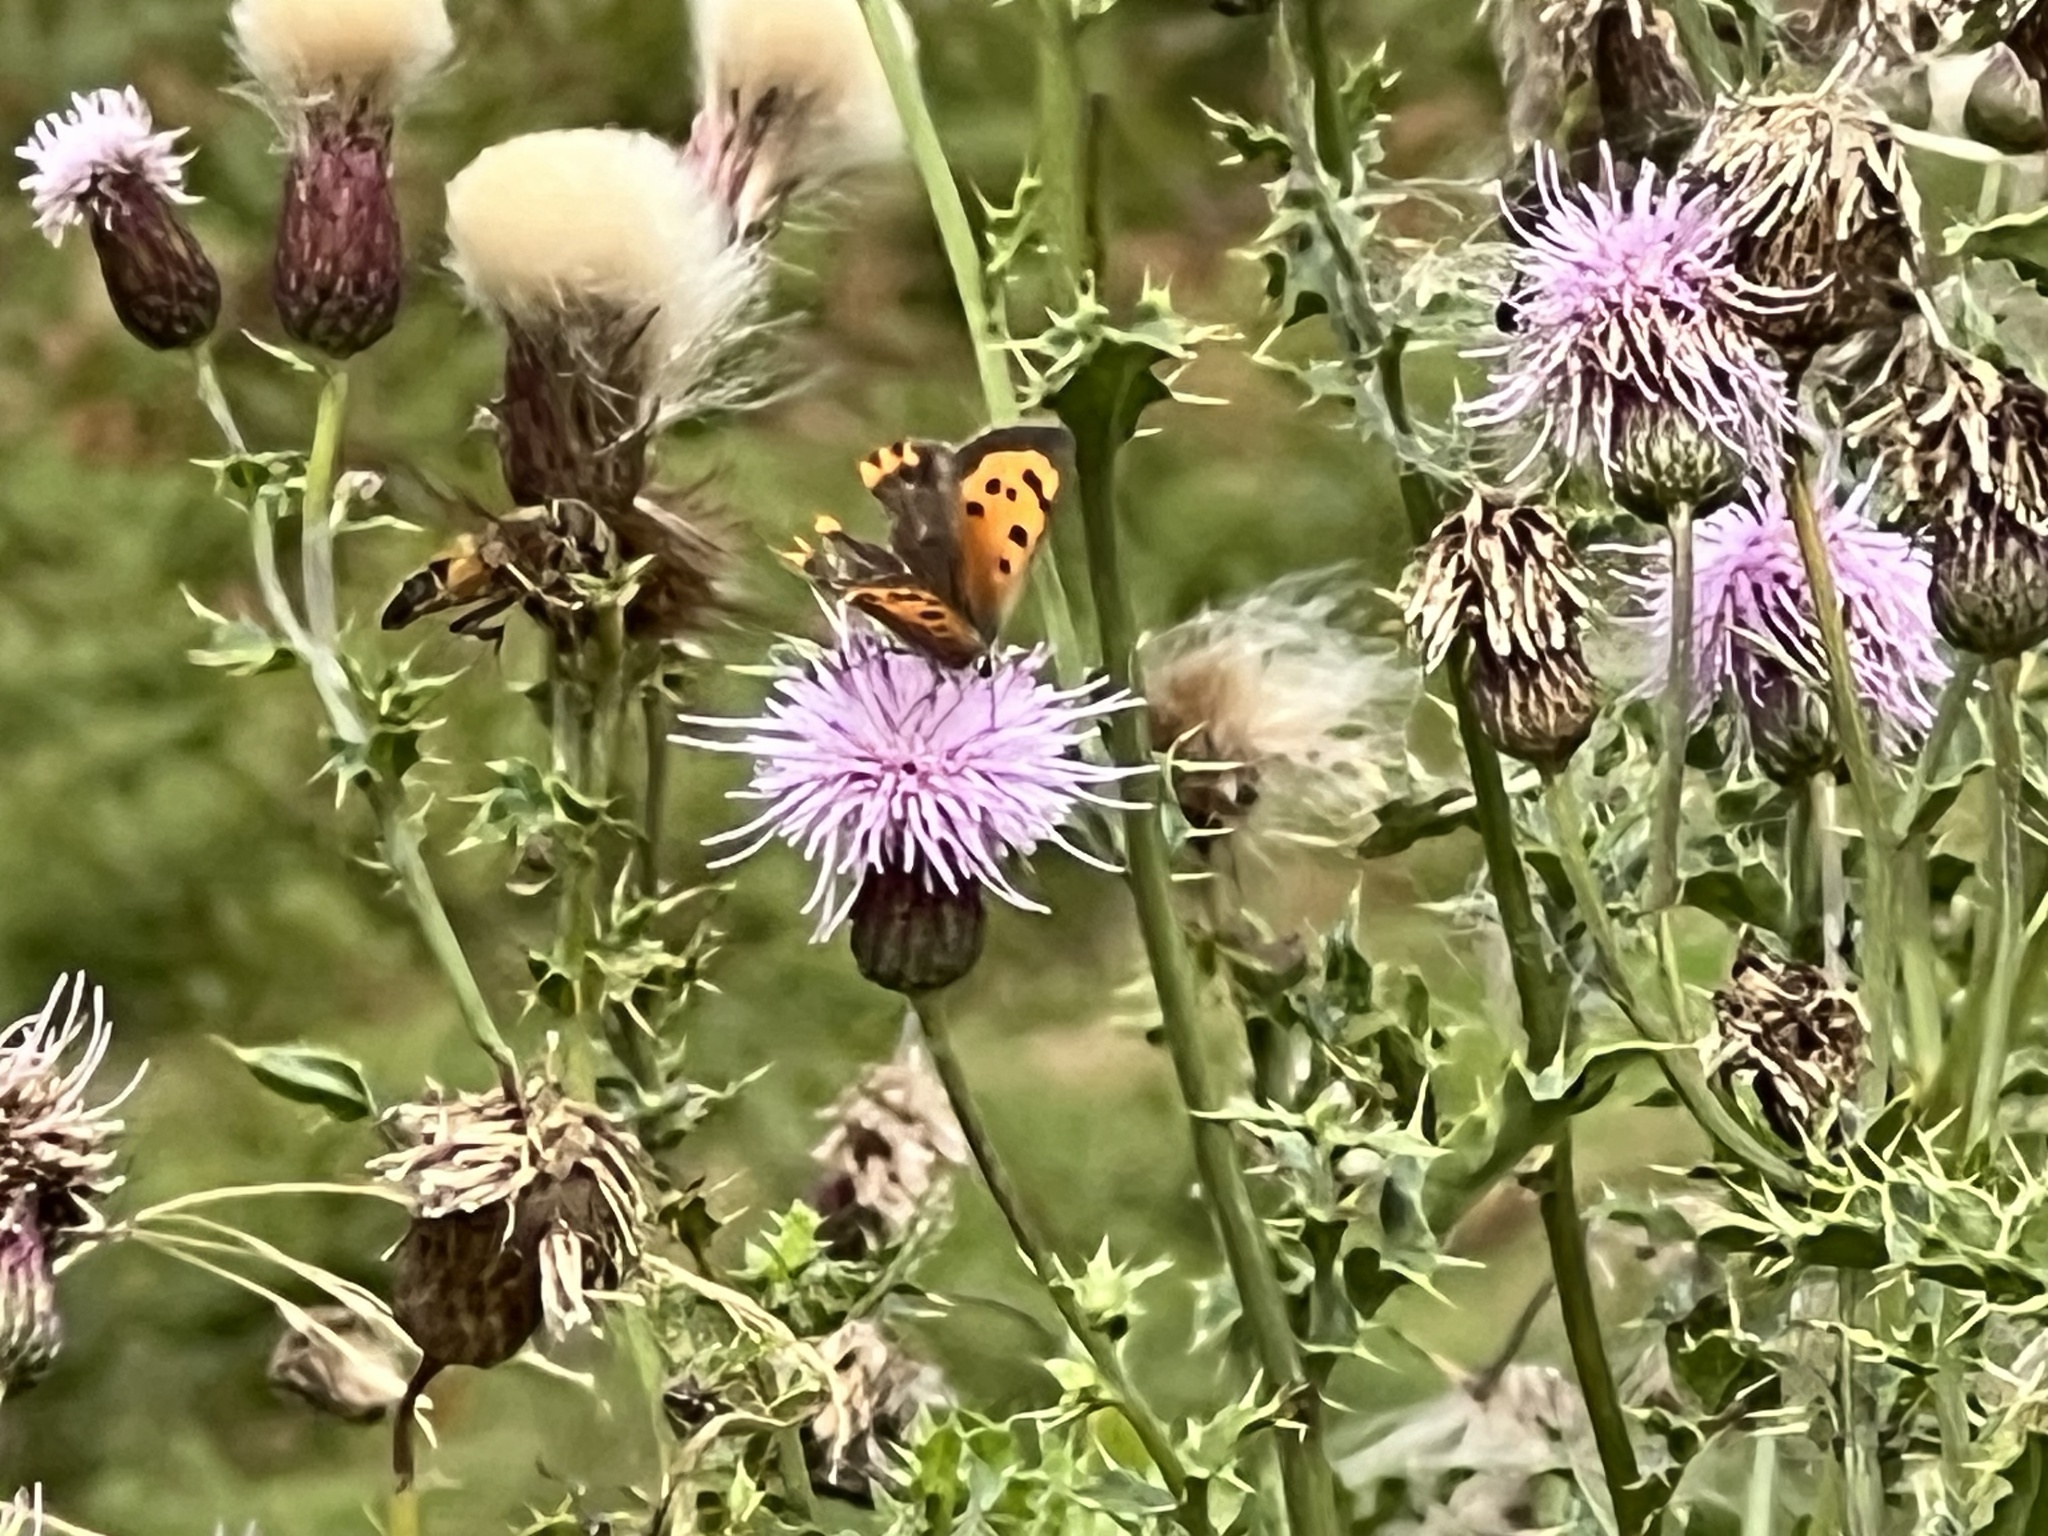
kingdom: Animalia
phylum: Arthropoda
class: Insecta
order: Lepidoptera
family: Lycaenidae
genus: Lycaena
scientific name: Lycaena phlaeas
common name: Small copper
